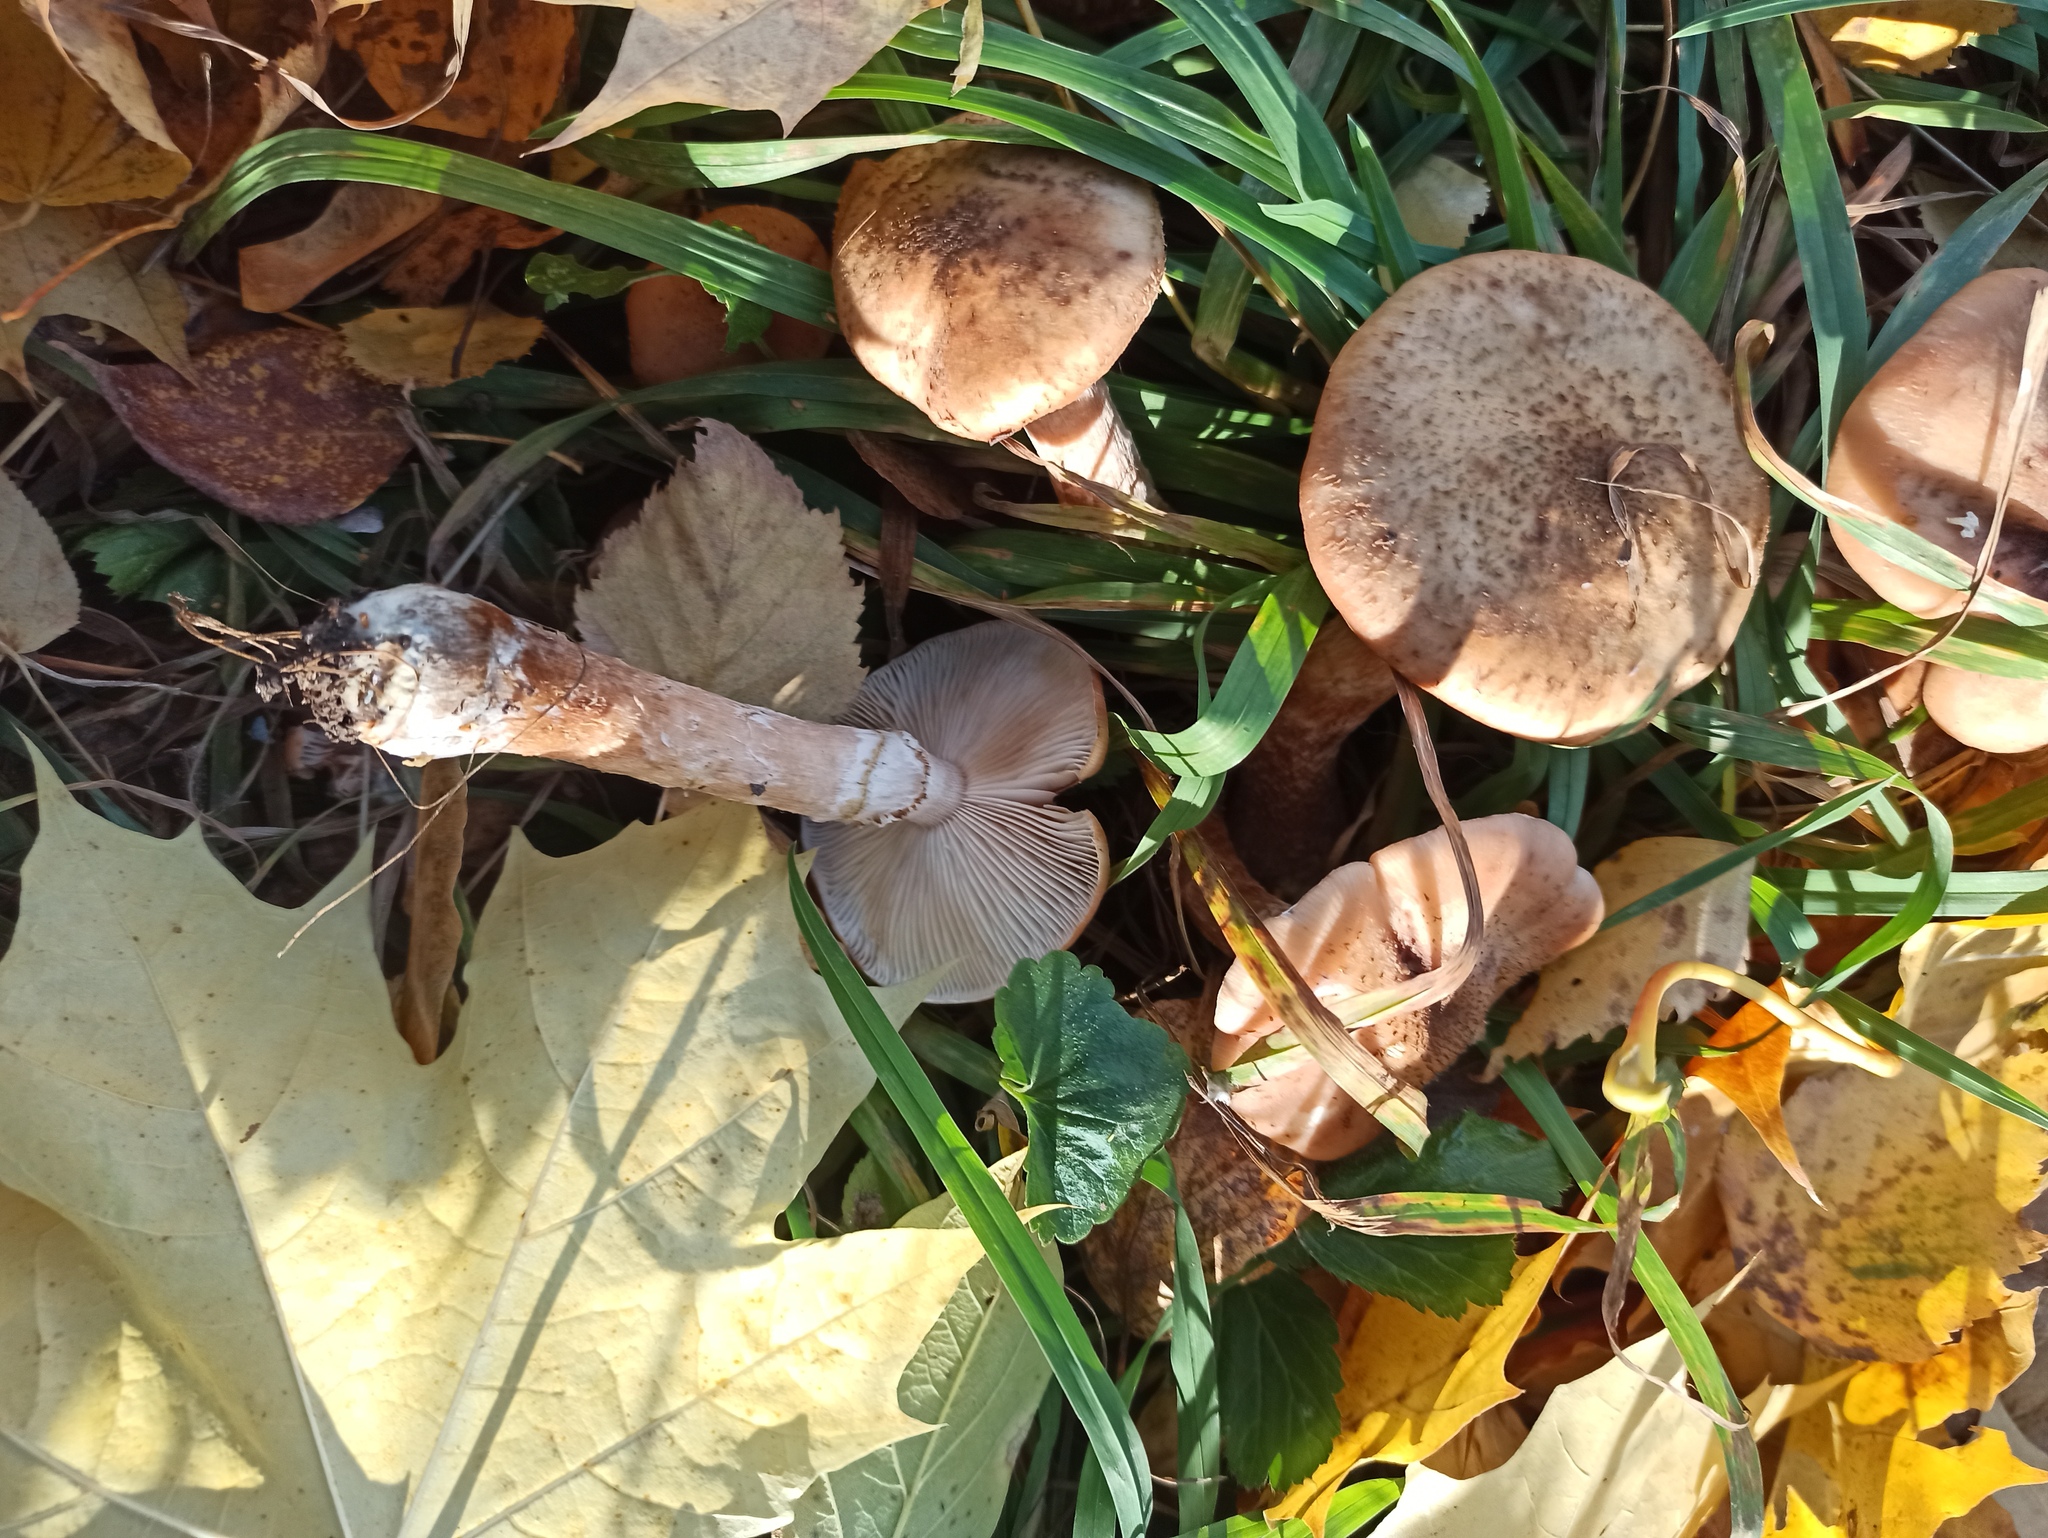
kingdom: Fungi
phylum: Basidiomycota
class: Agaricomycetes
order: Agaricales
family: Physalacriaceae
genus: Armillaria
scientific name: Armillaria borealis
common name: Northern honey fungus
